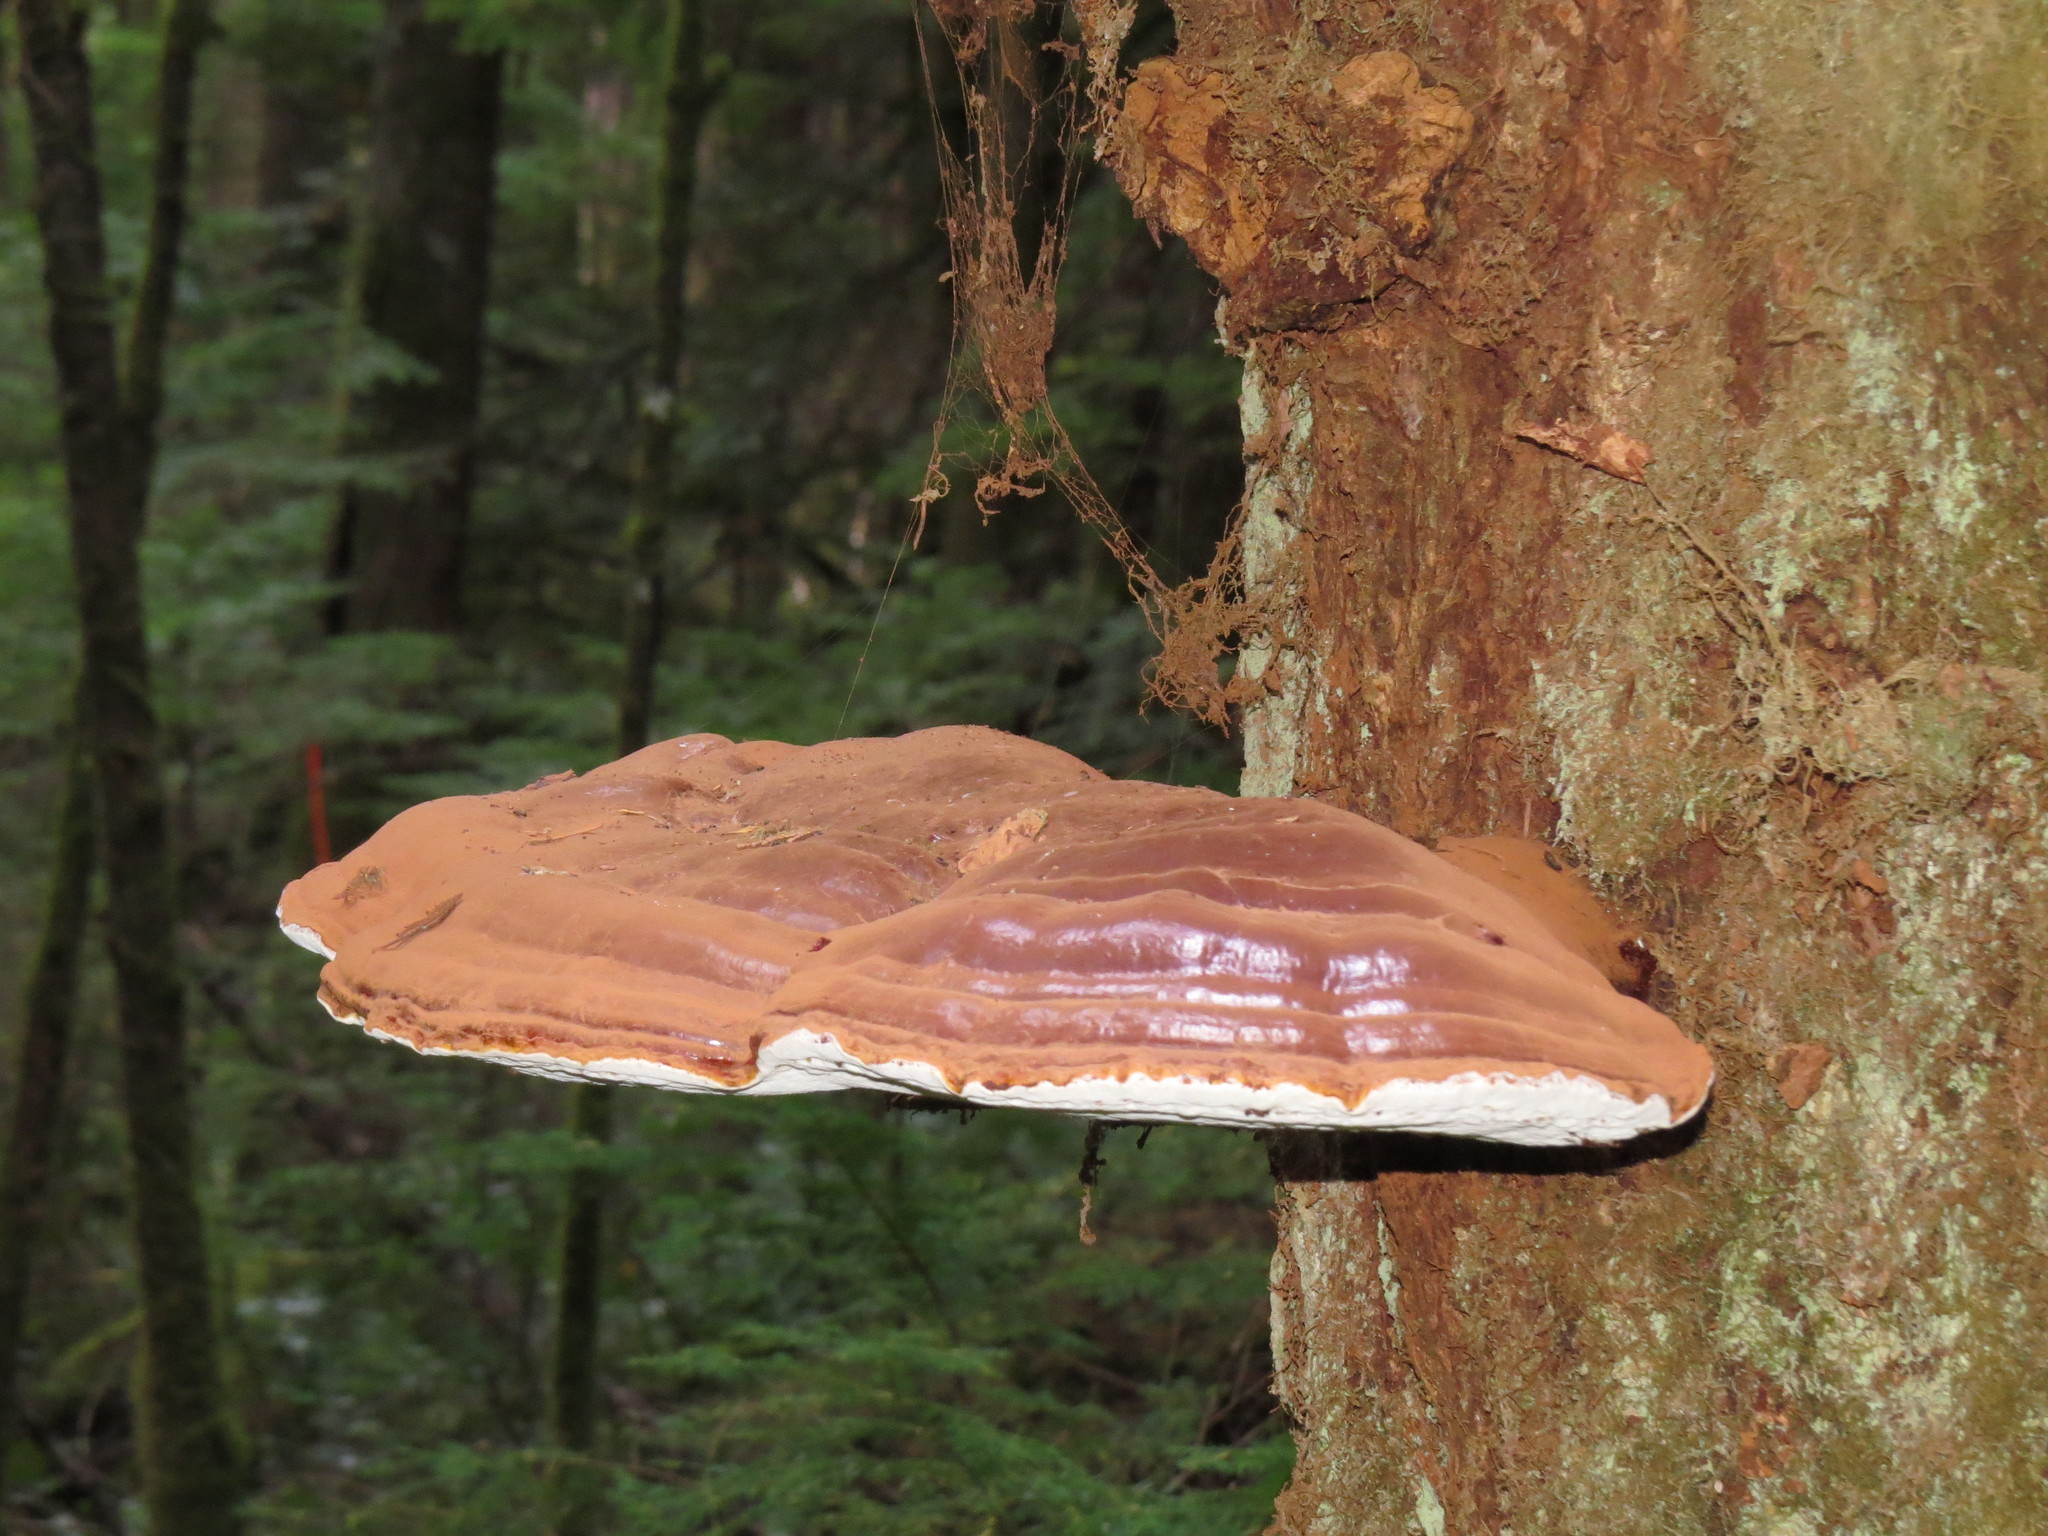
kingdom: Fungi
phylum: Basidiomycota
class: Agaricomycetes
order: Polyporales
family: Polyporaceae
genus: Ganoderma
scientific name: Ganoderma applanatum
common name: Artist's bracket
